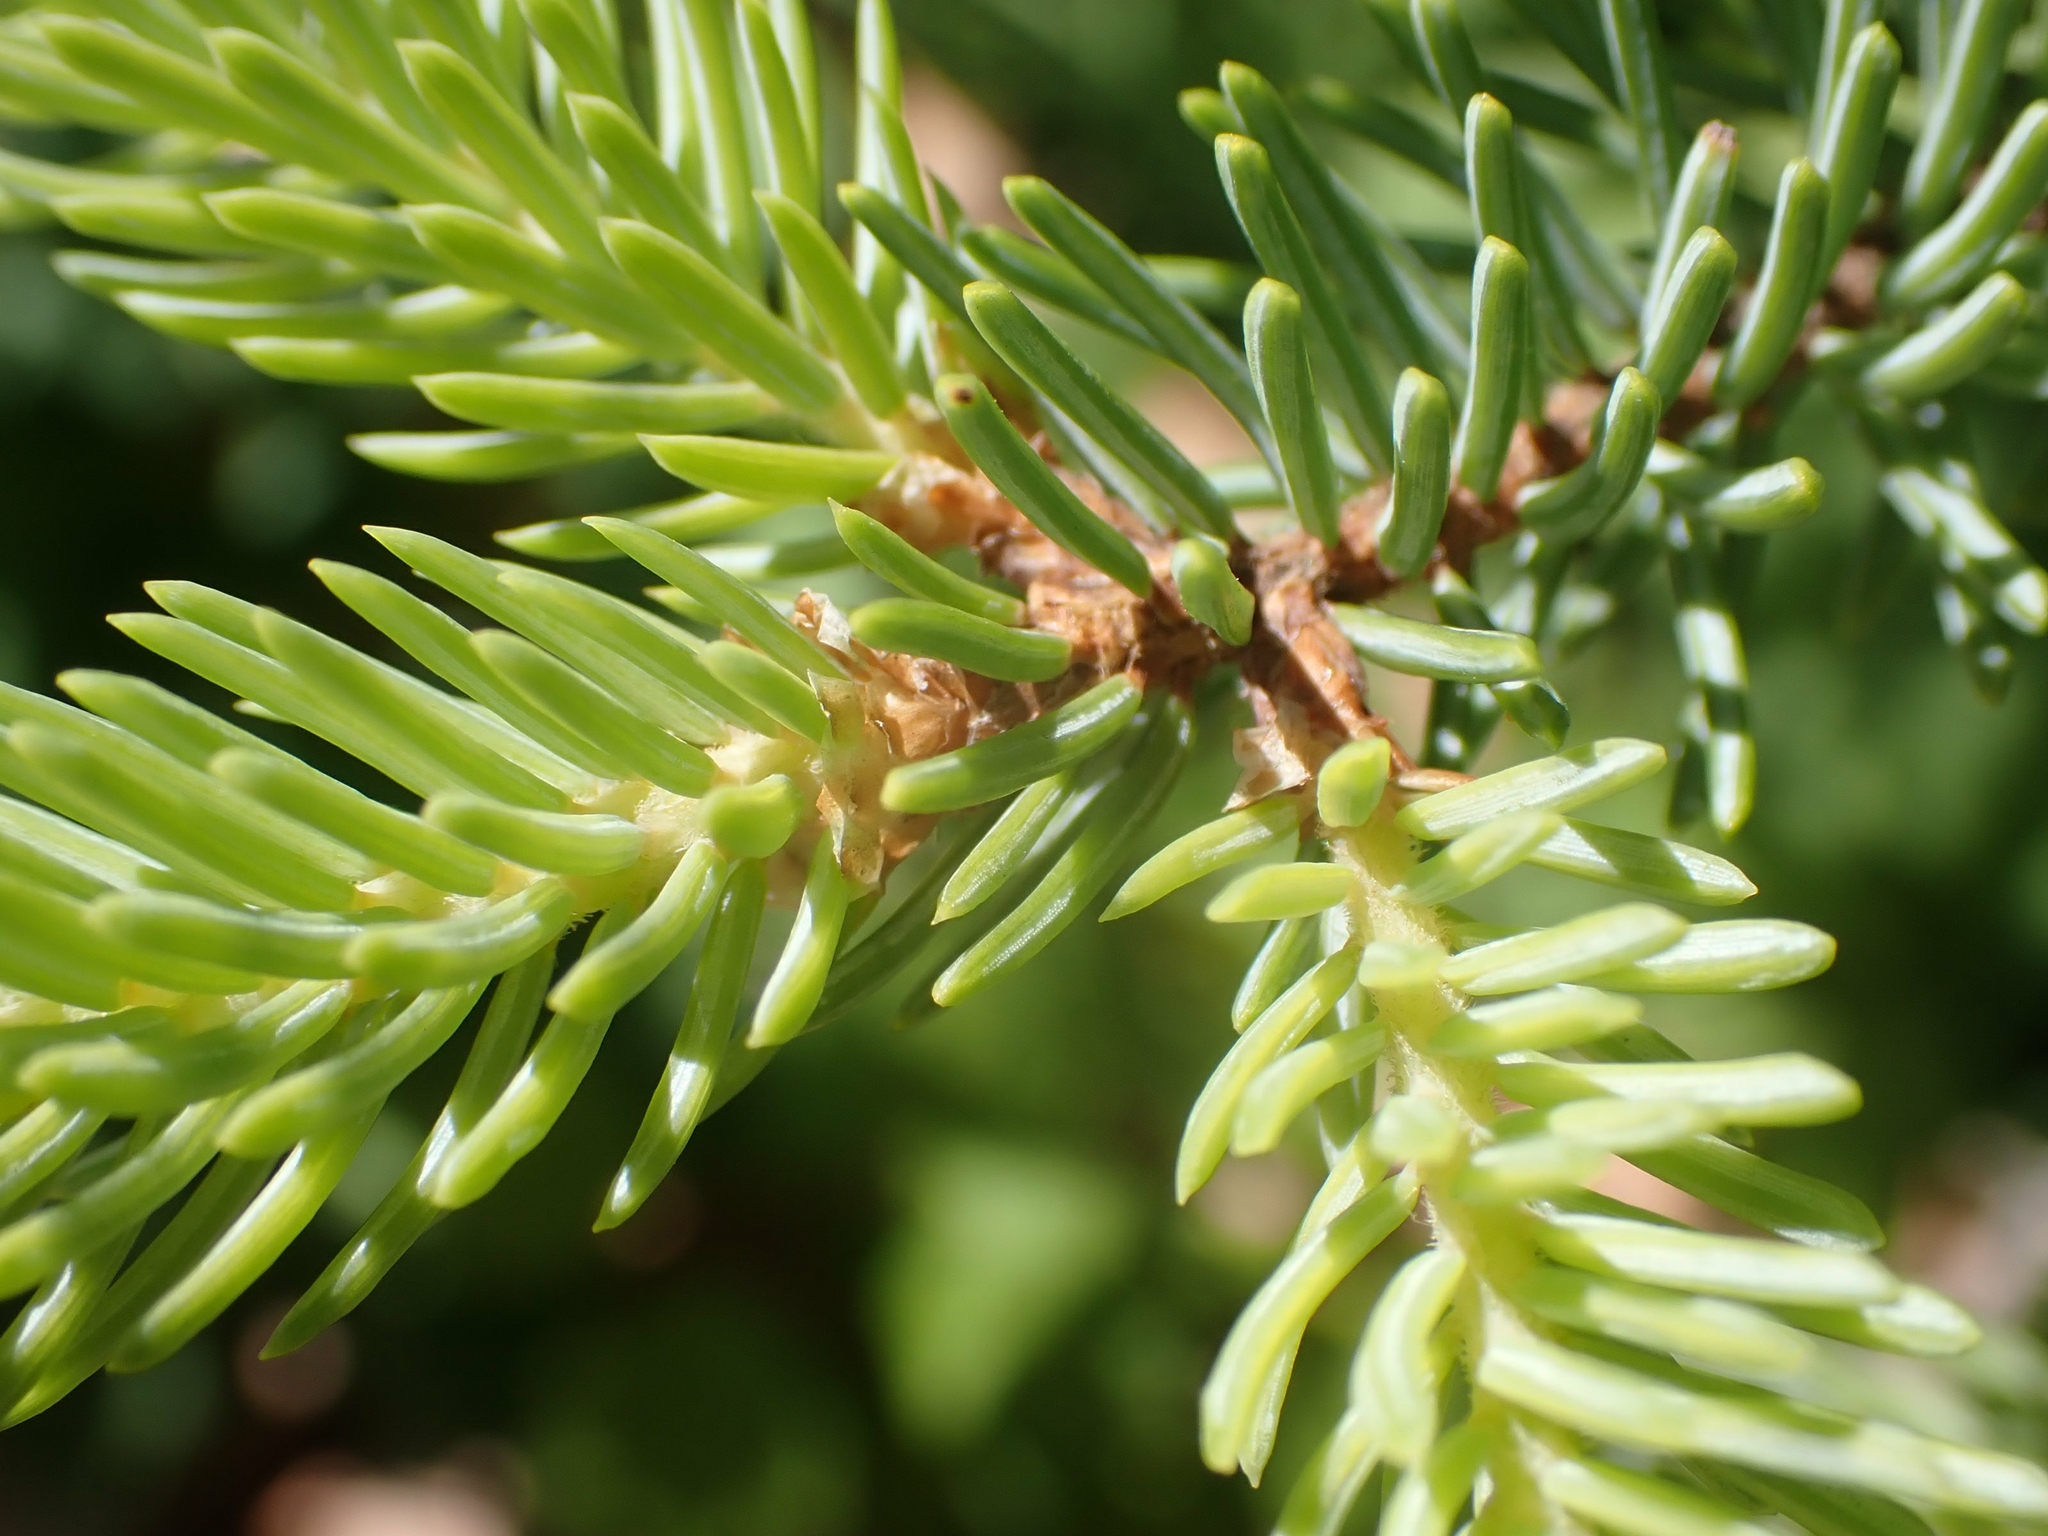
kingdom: Plantae
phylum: Tracheophyta
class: Pinopsida
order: Pinales
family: Pinaceae
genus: Picea
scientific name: Picea glauca
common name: White spruce
